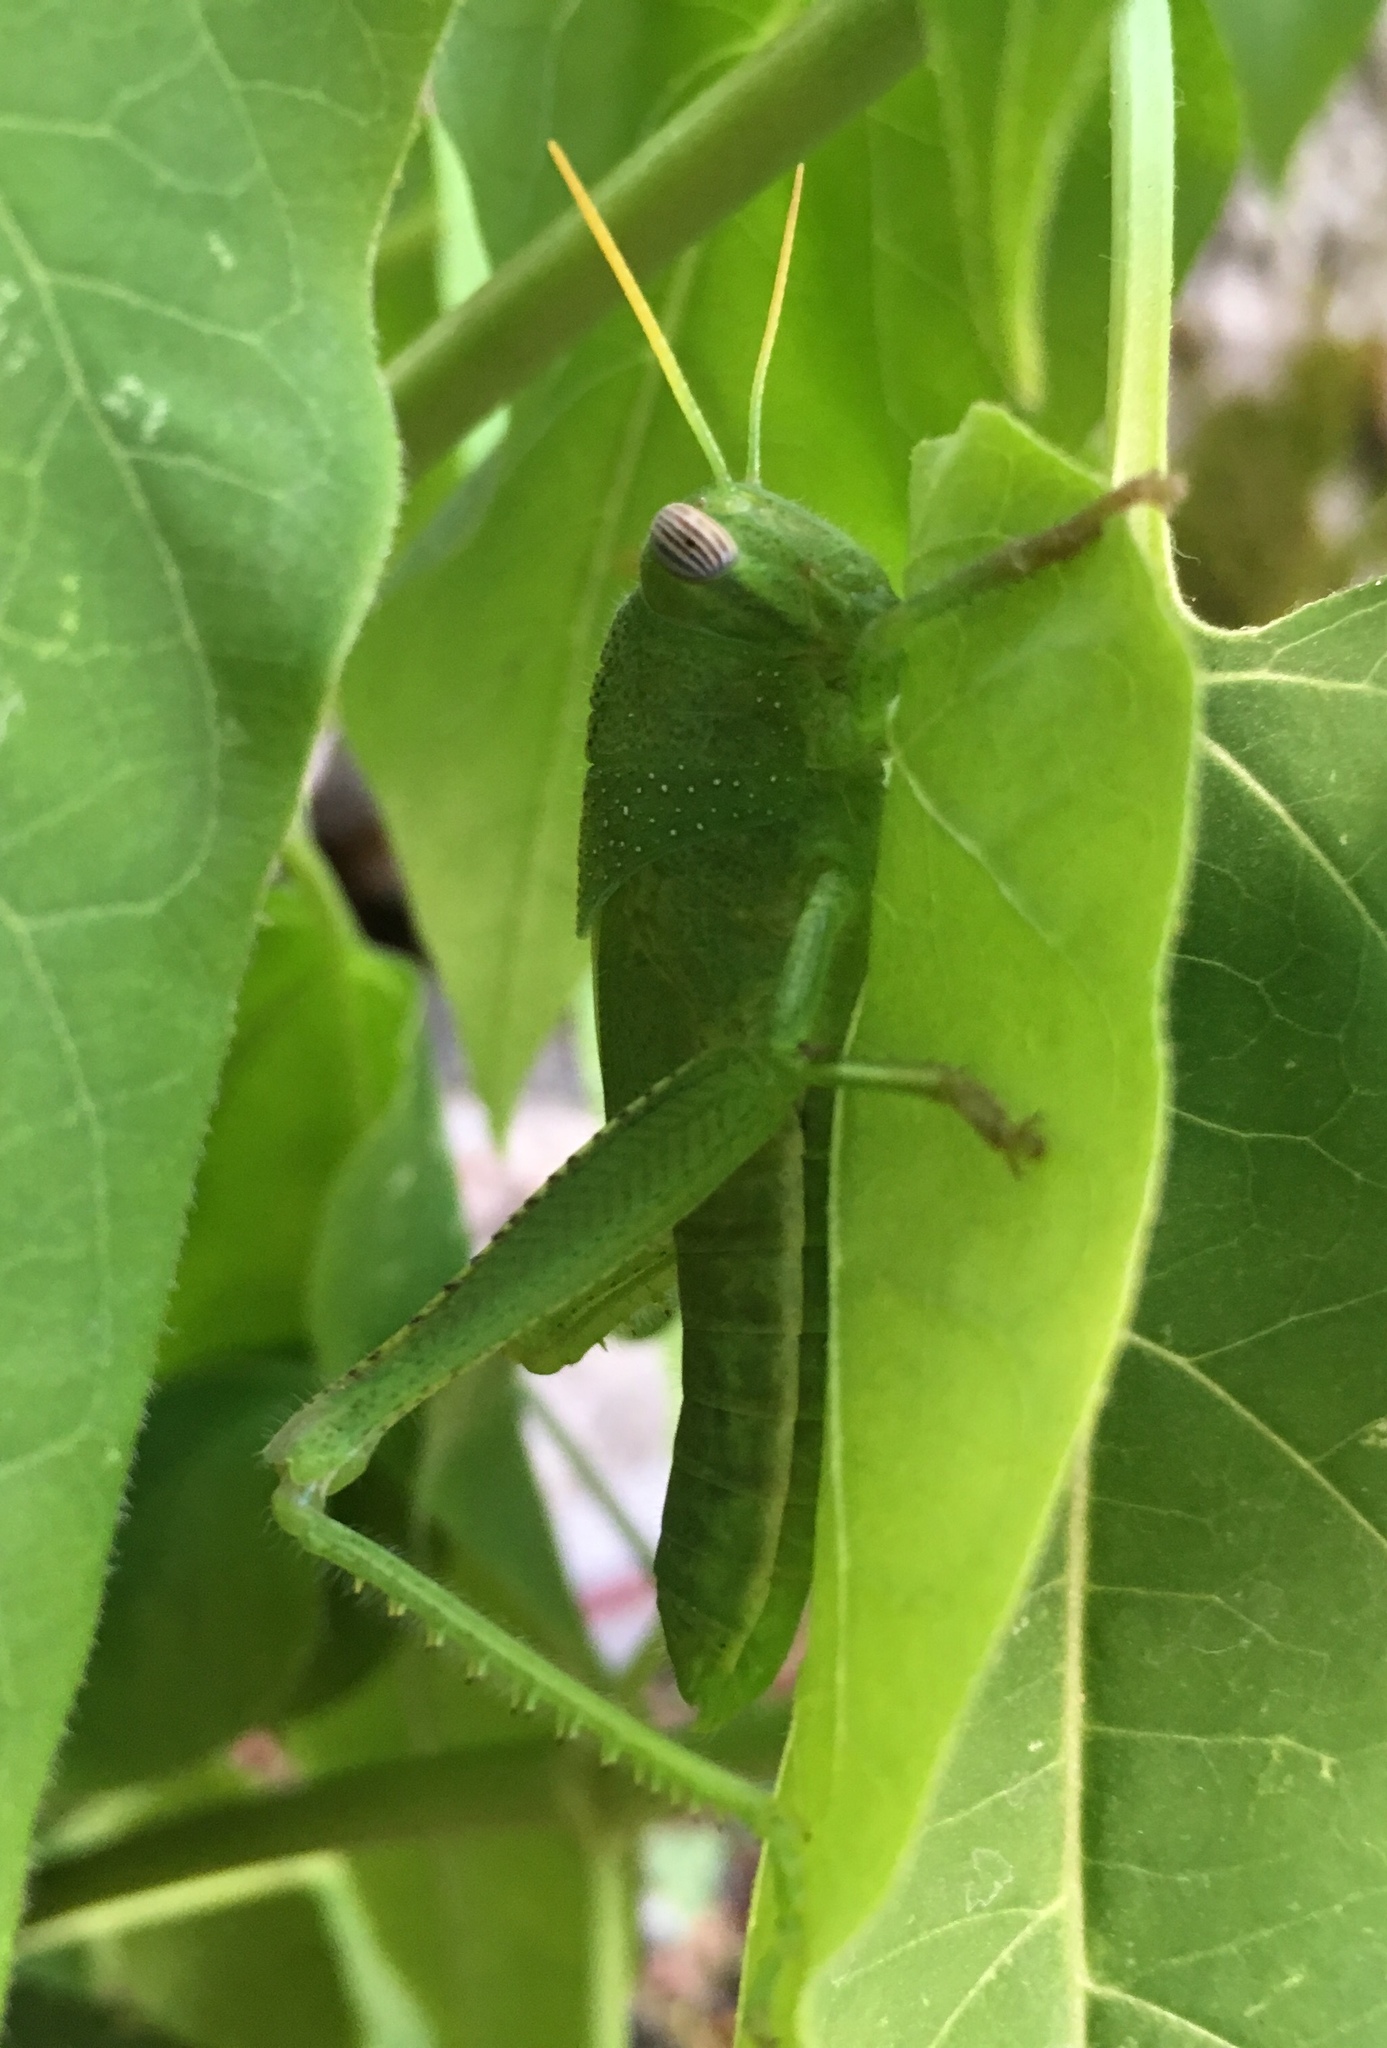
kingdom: Animalia
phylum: Arthropoda
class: Insecta
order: Orthoptera
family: Acrididae
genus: Anacridium
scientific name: Anacridium aegyptium
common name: Egyptian grasshopper
